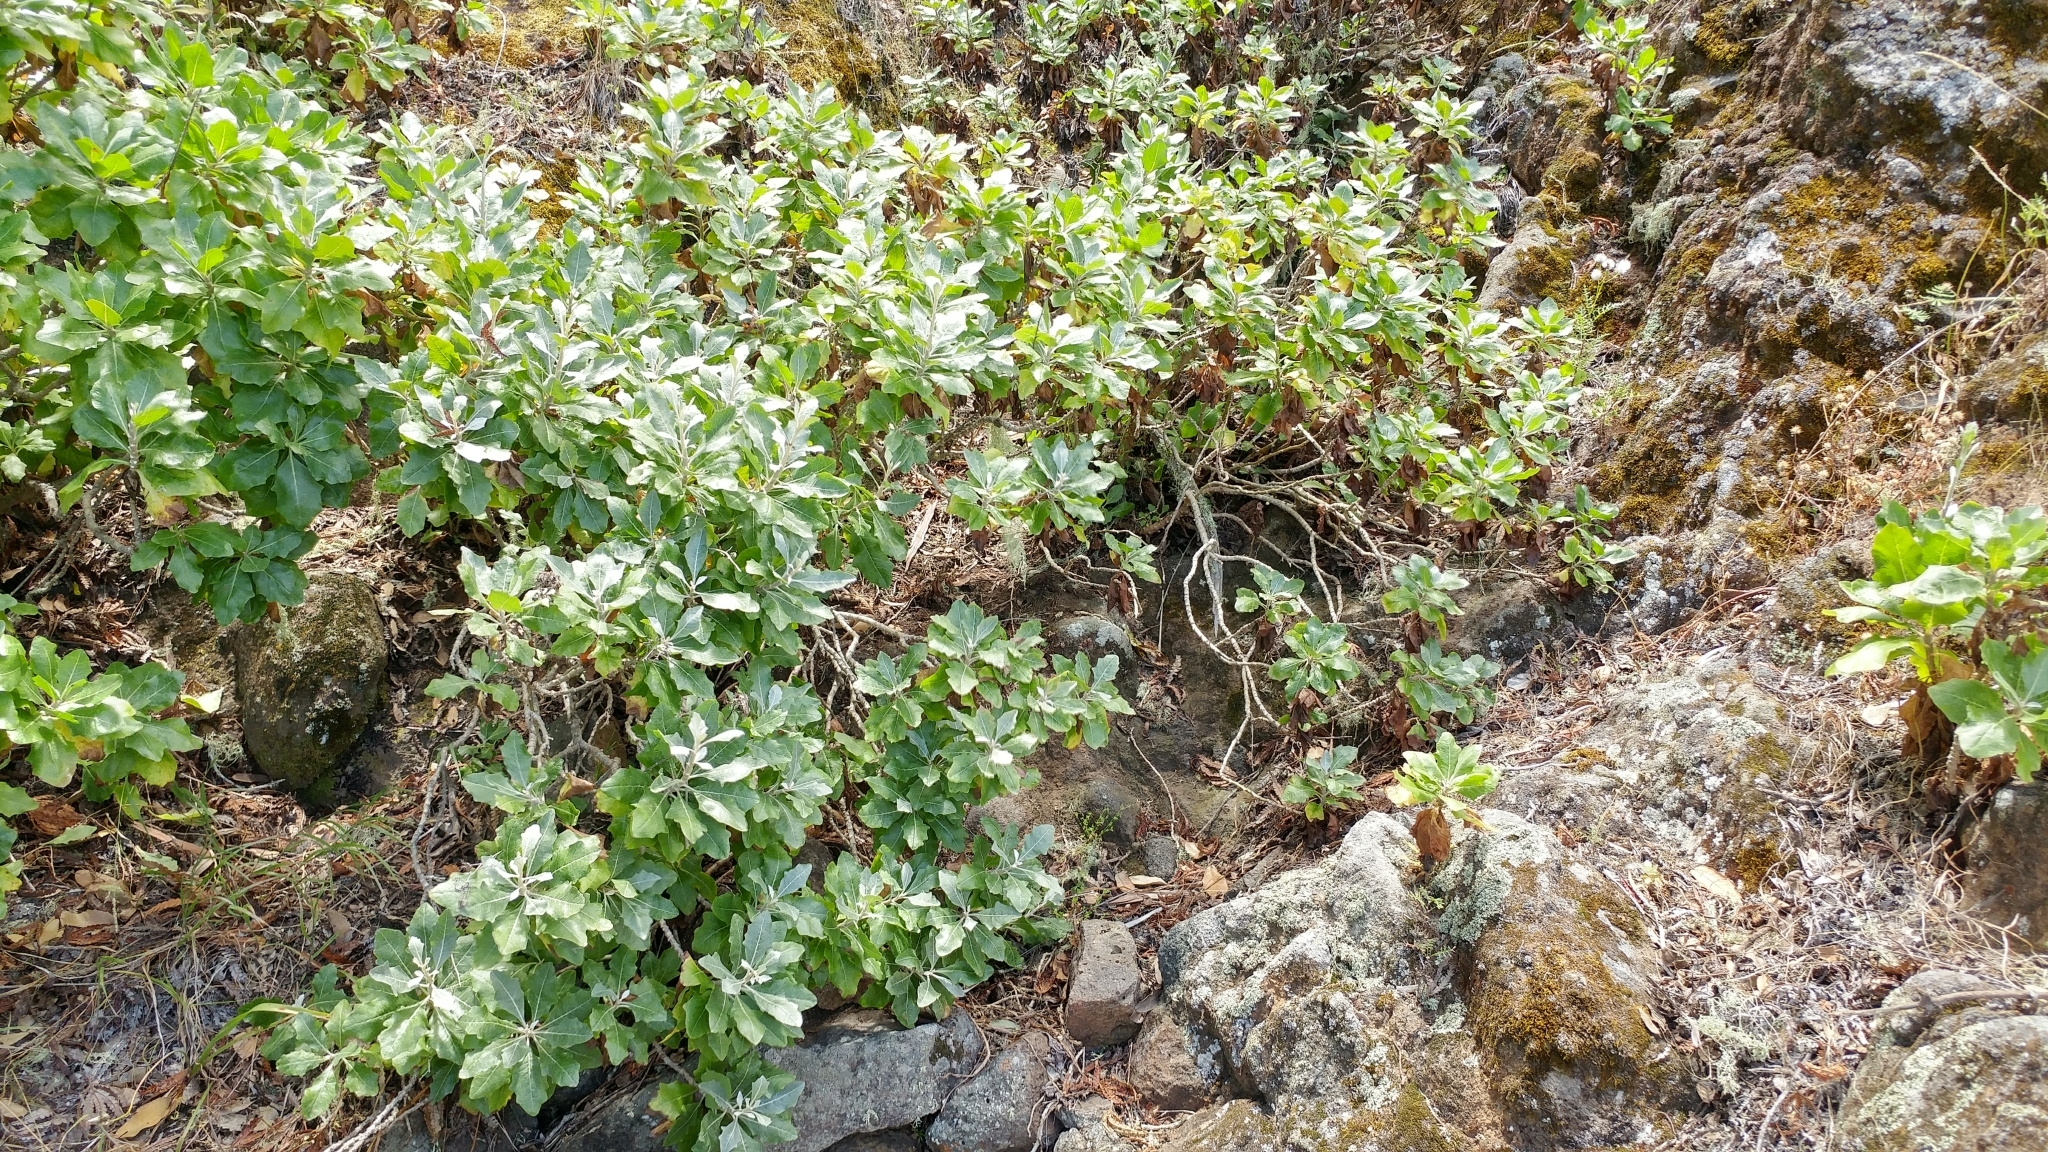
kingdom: Plantae
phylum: Tracheophyta
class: Magnoliopsida
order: Asterales
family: Asteraceae
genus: Munzothamnus
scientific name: Munzothamnus blairii
